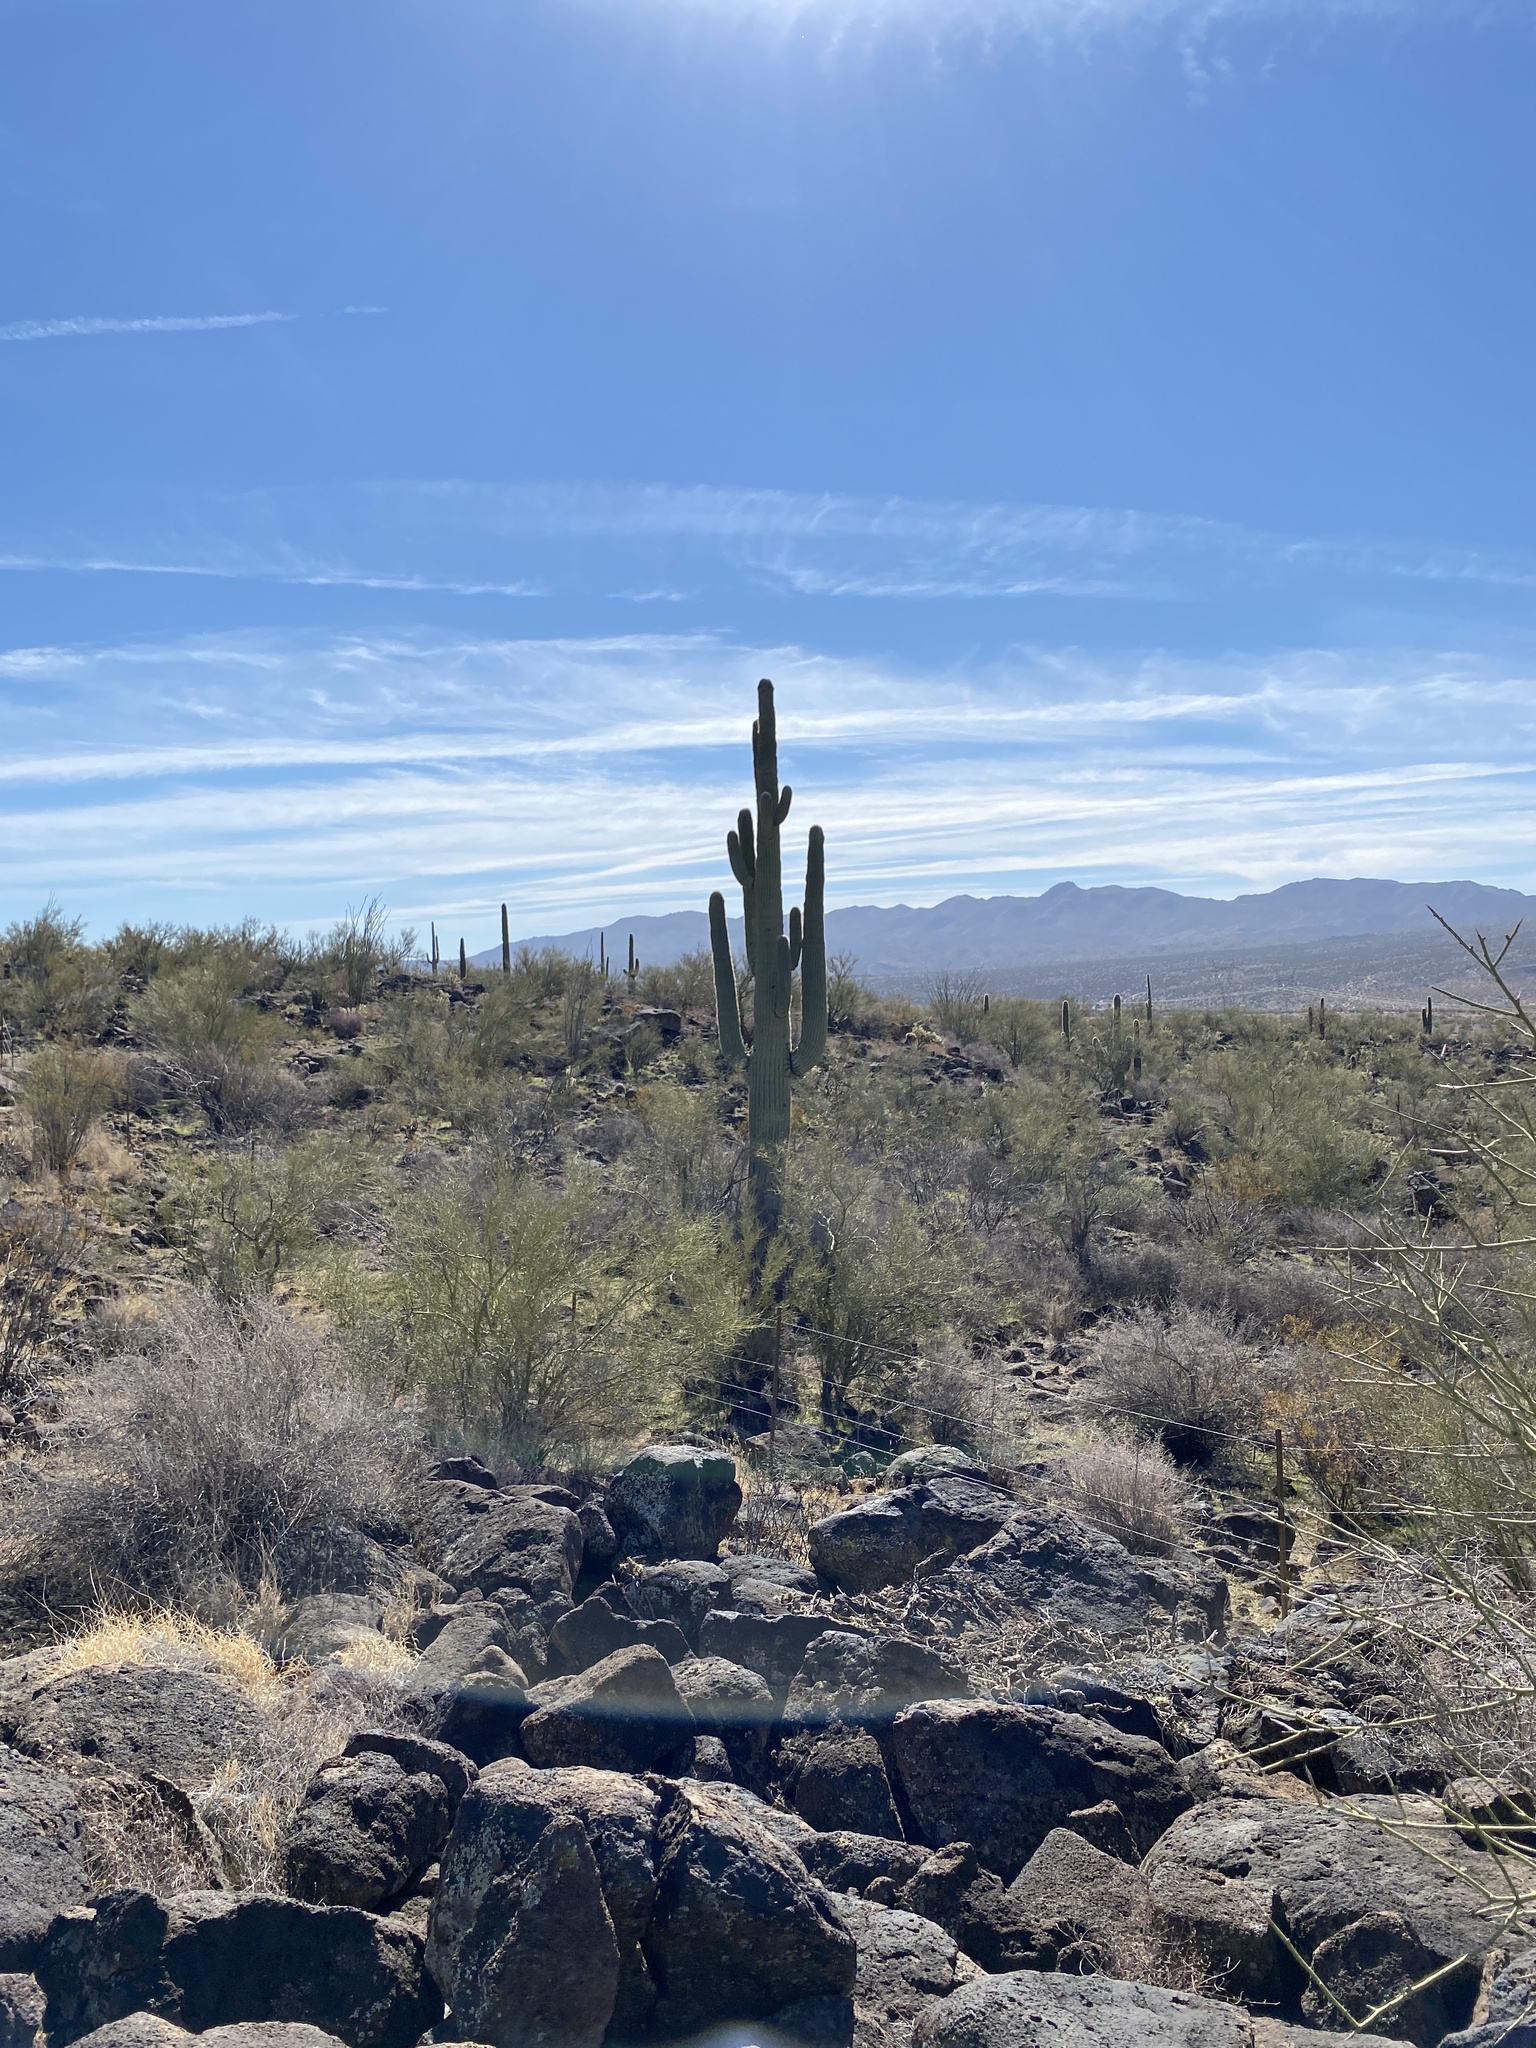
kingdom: Plantae
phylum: Tracheophyta
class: Magnoliopsida
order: Caryophyllales
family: Cactaceae
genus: Carnegiea
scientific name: Carnegiea gigantea
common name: Saguaro
